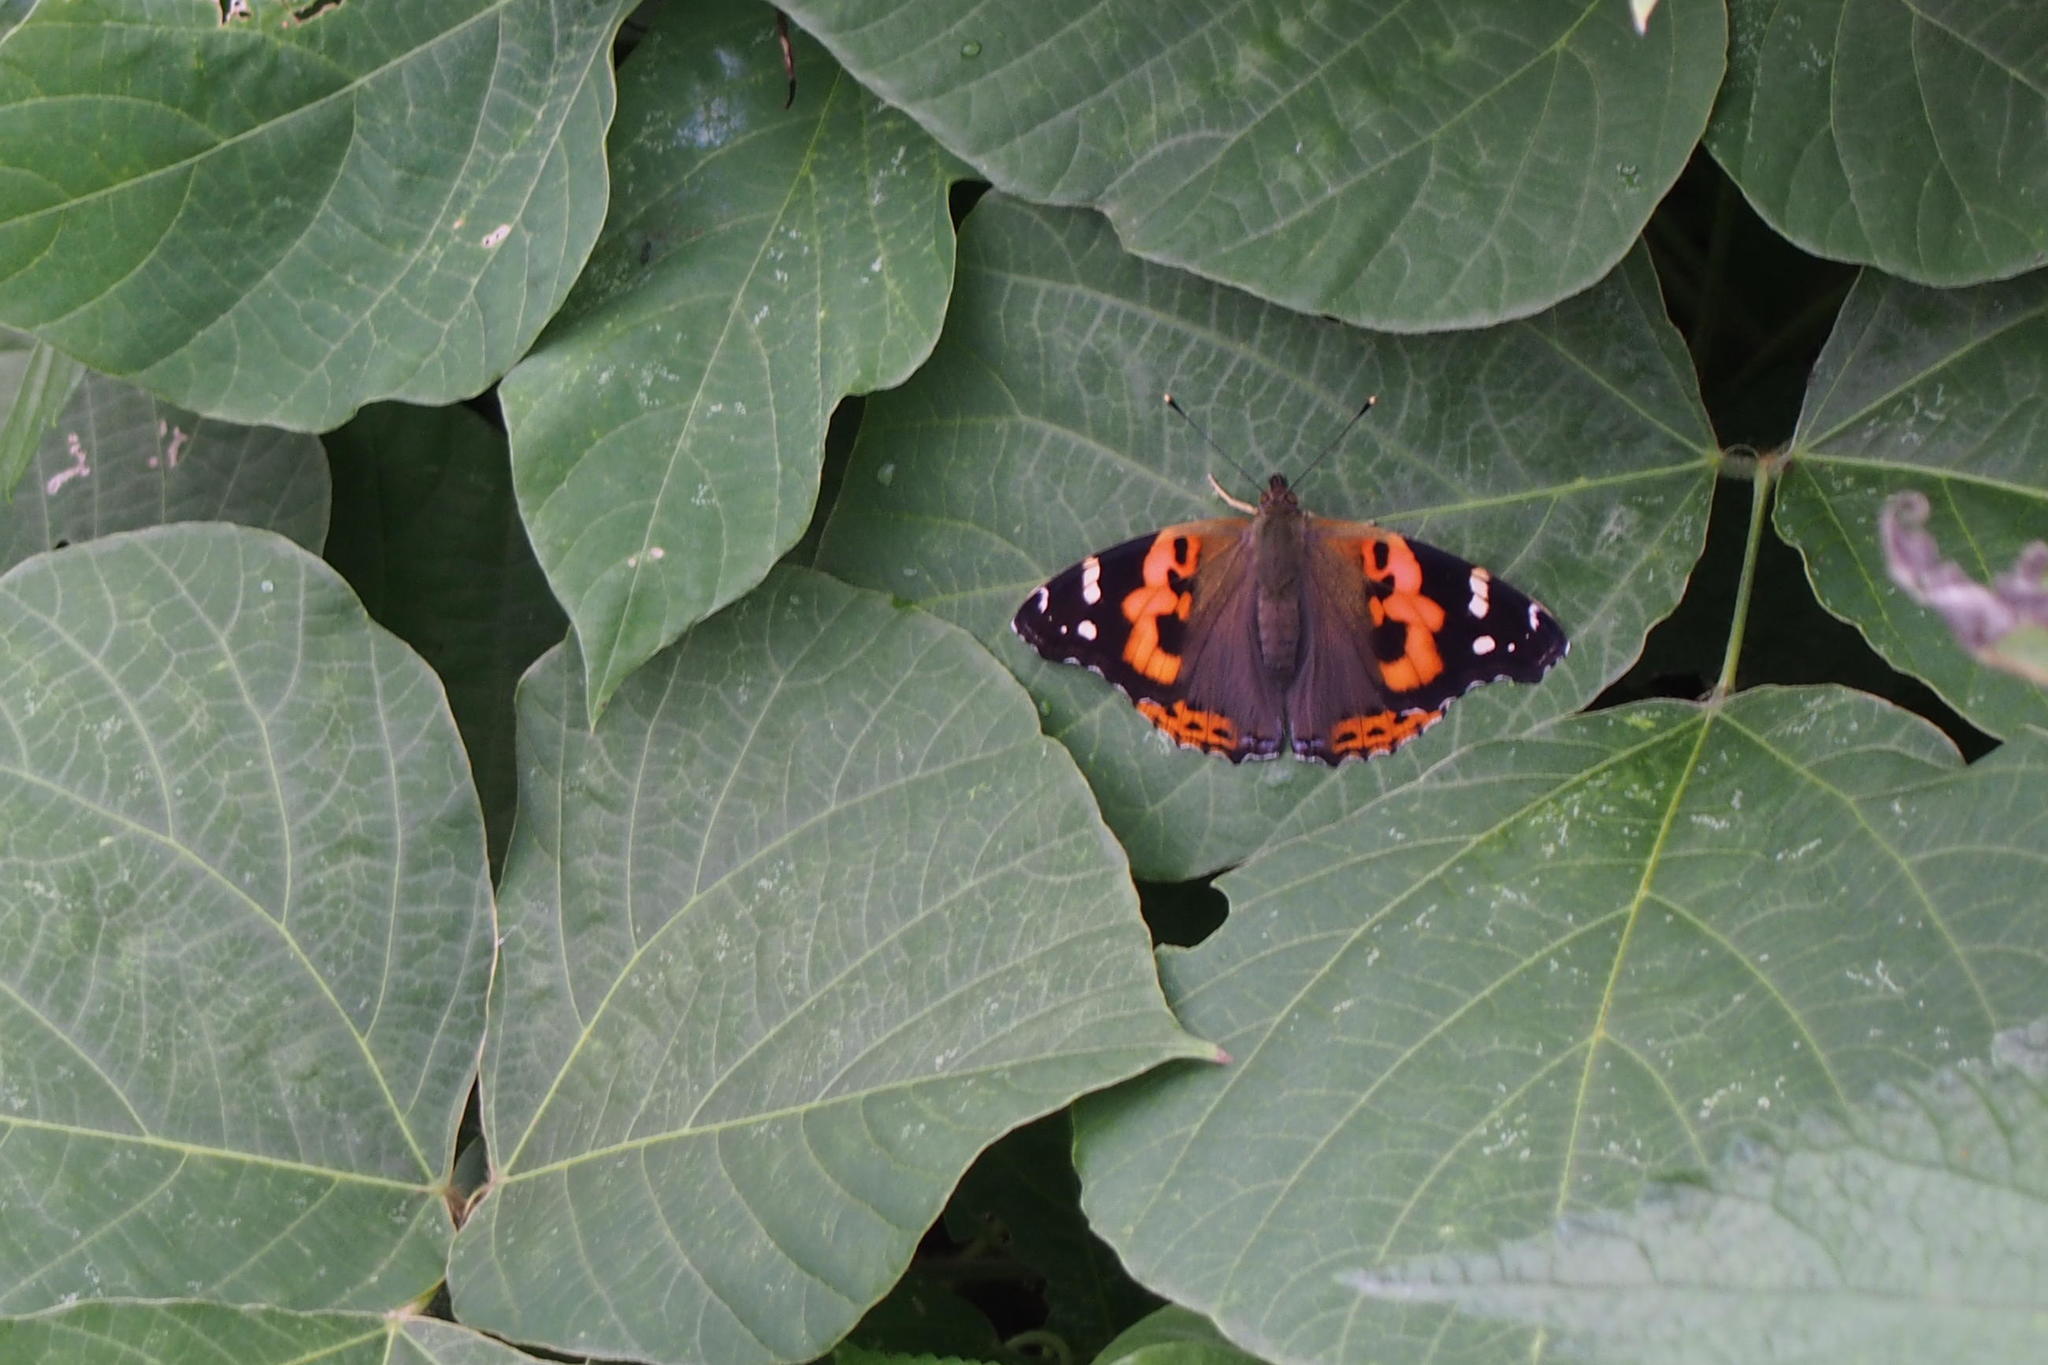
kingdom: Animalia
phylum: Arthropoda
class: Insecta
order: Lepidoptera
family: Nymphalidae
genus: Vanessa
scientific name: Vanessa indica
